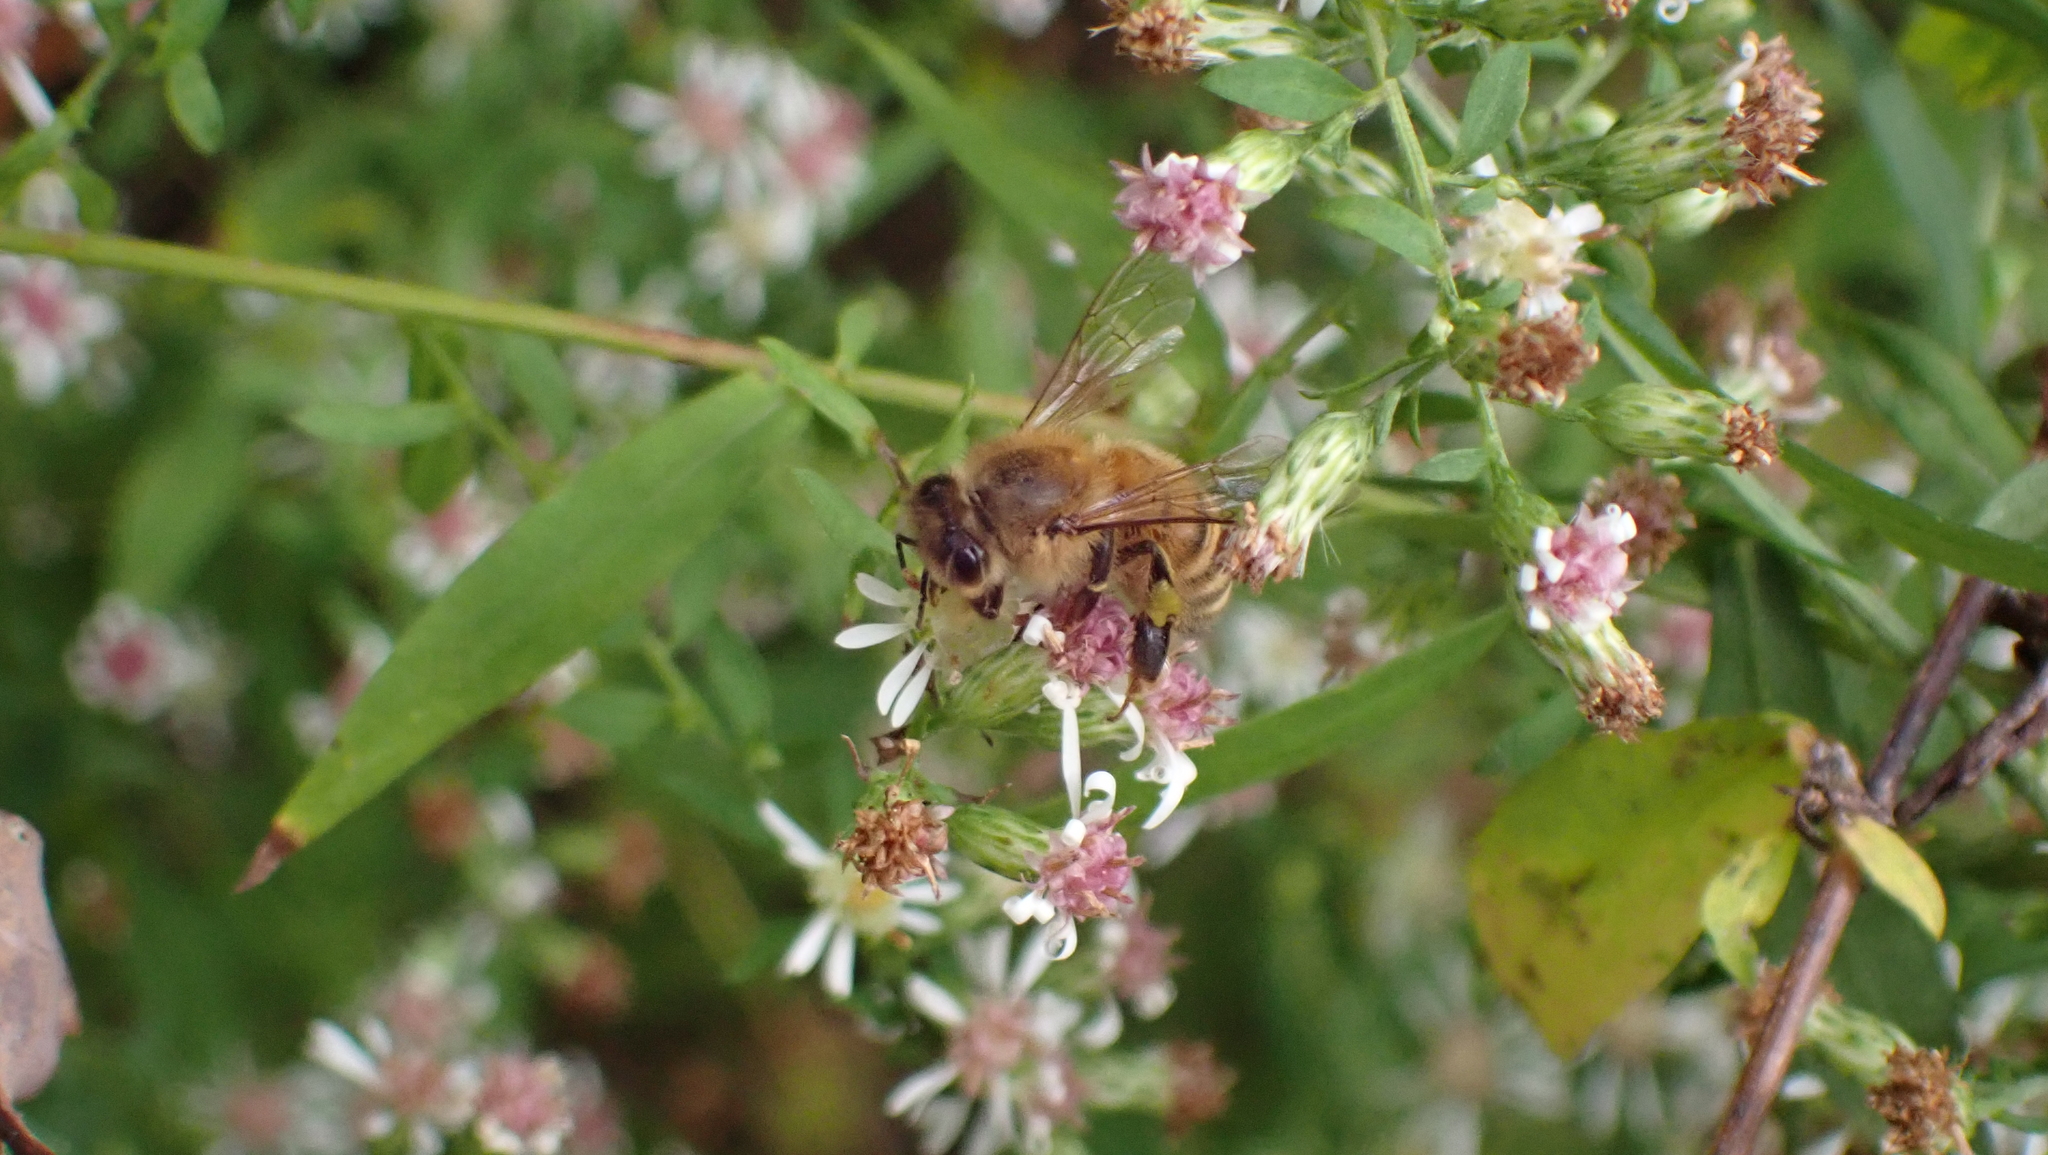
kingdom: Animalia
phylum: Arthropoda
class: Insecta
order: Hymenoptera
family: Apidae
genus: Apis
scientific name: Apis mellifera
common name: Honey bee
